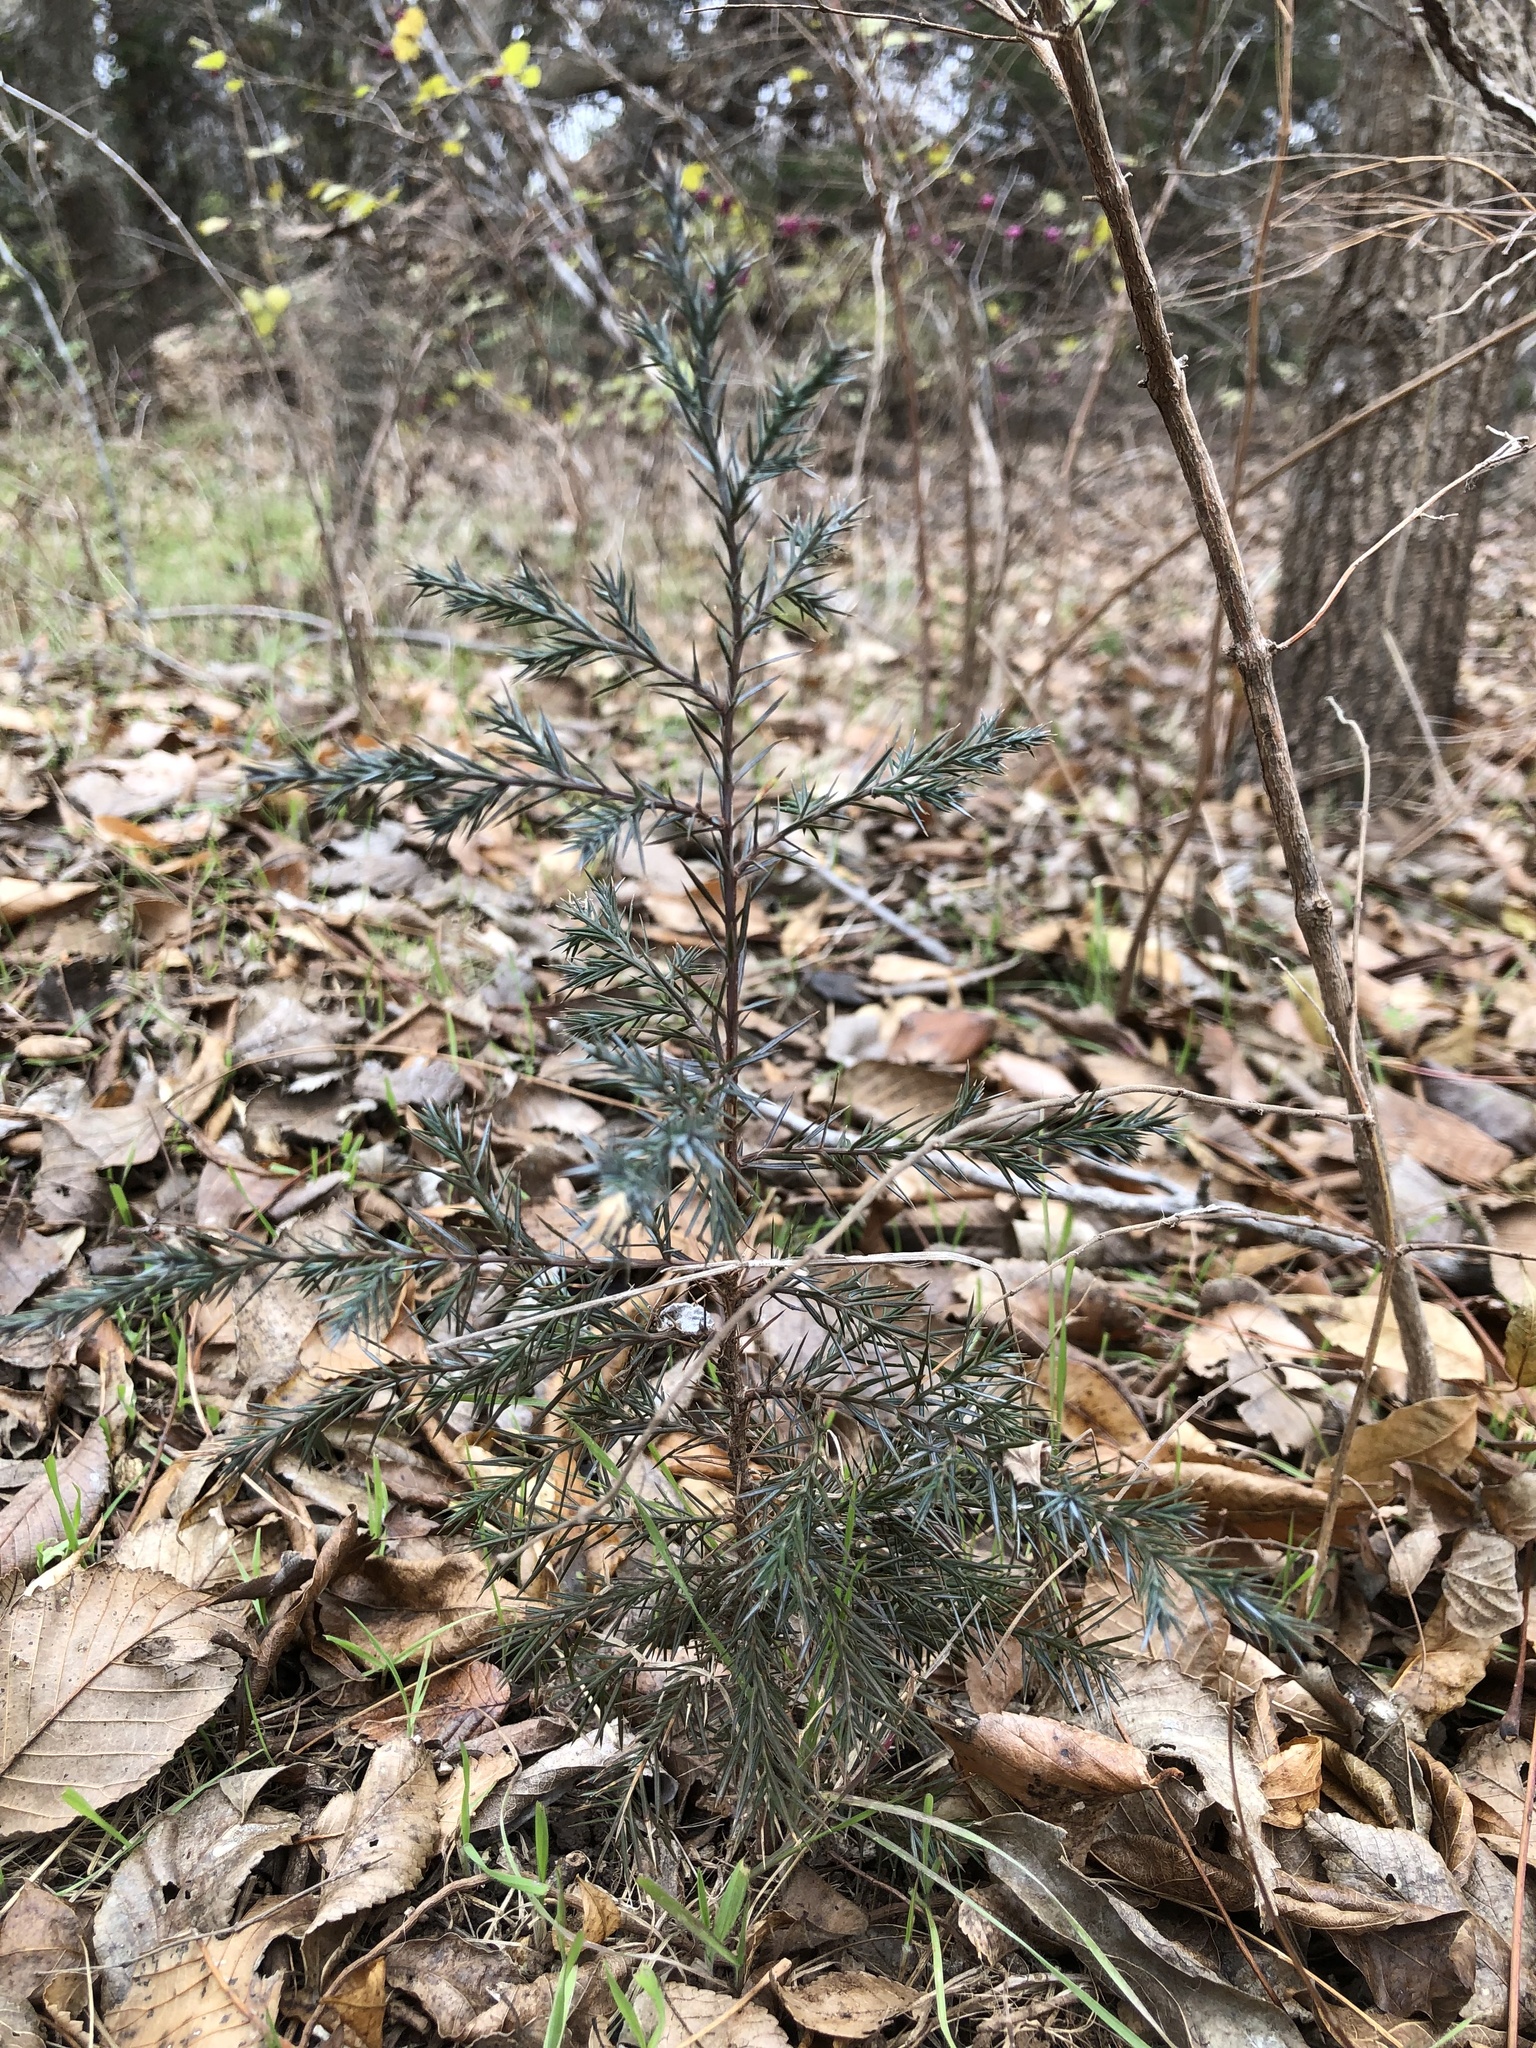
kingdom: Plantae
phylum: Tracheophyta
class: Pinopsida
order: Pinales
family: Cupressaceae
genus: Juniperus
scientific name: Juniperus virginiana
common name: Red juniper
